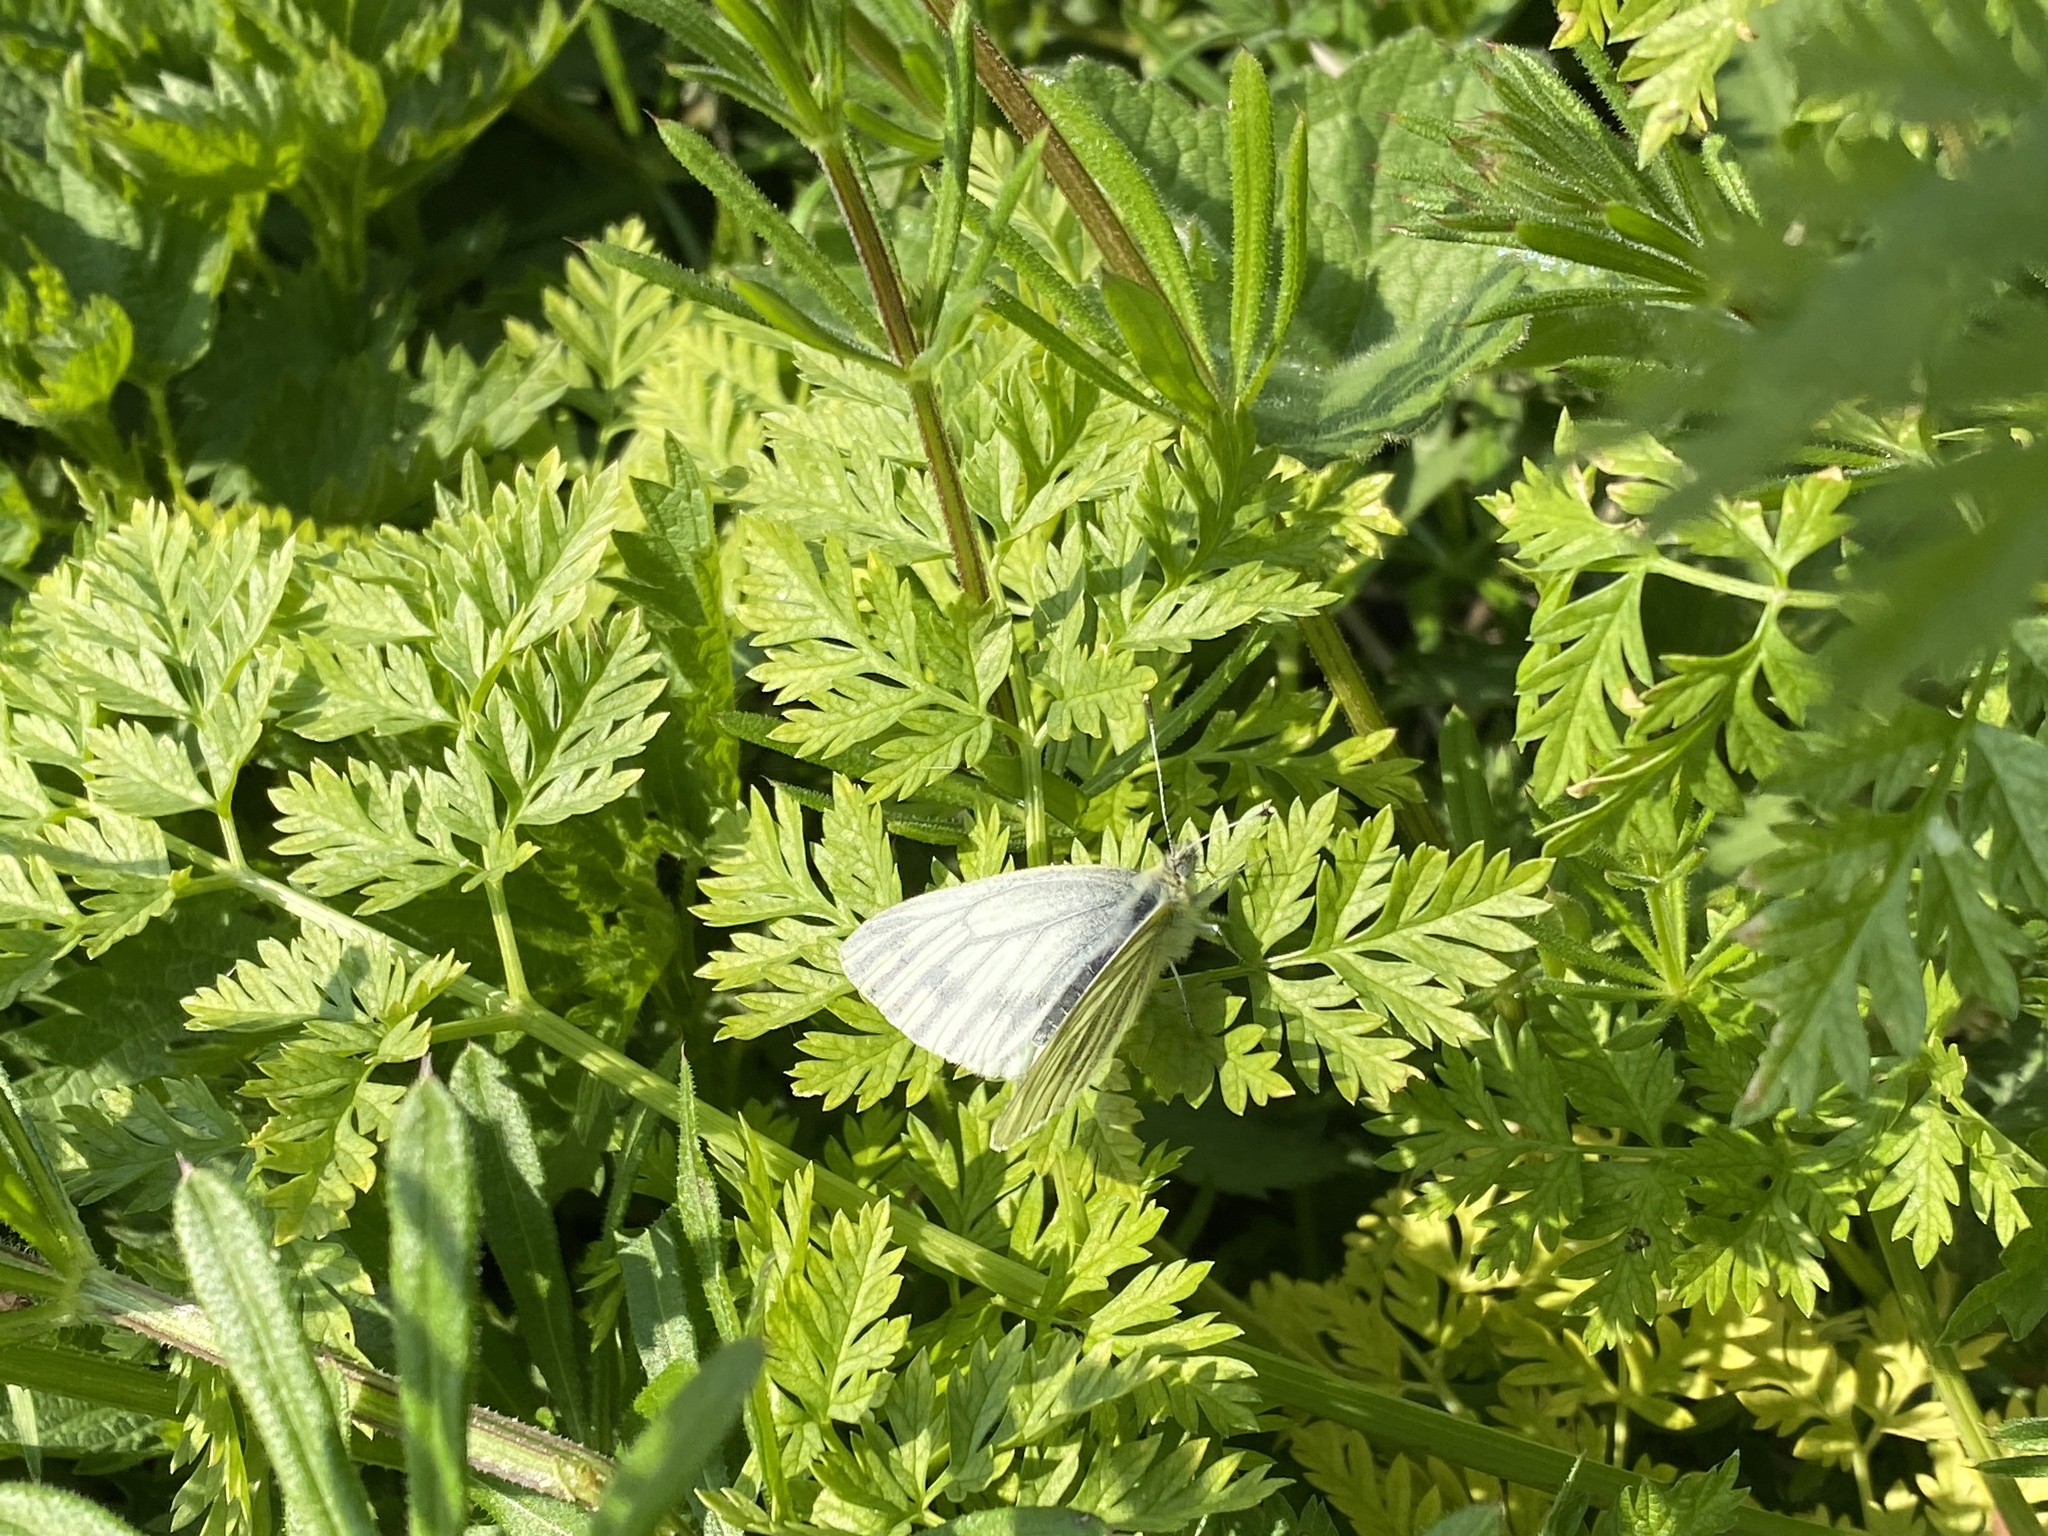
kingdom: Animalia
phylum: Arthropoda
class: Insecta
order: Lepidoptera
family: Pieridae
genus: Pieris
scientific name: Pieris napi
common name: Green-veined white
